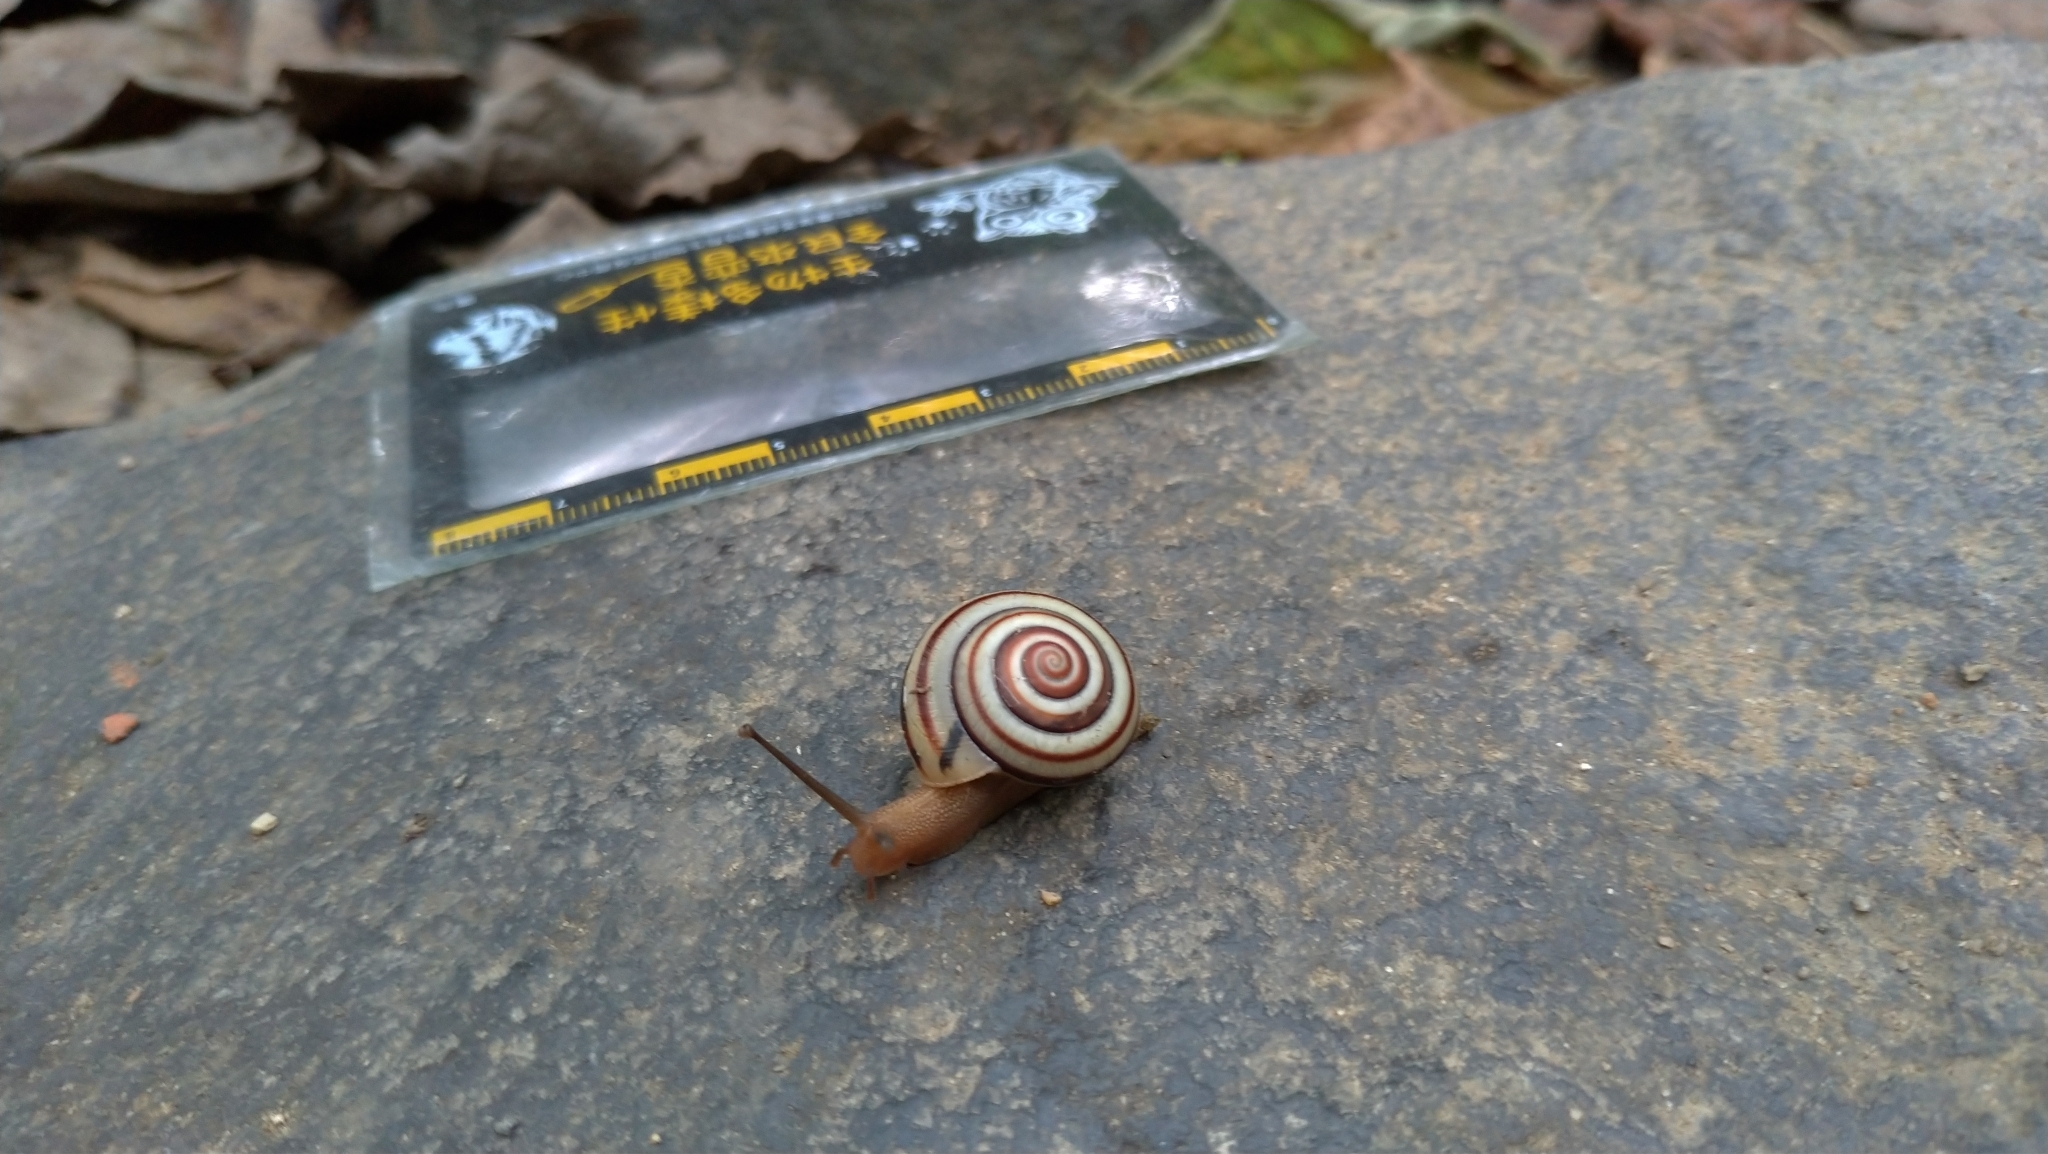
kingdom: Animalia
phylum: Mollusca
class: Gastropoda
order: Stylommatophora
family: Camaenidae
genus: Pancala
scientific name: Pancala batanica
